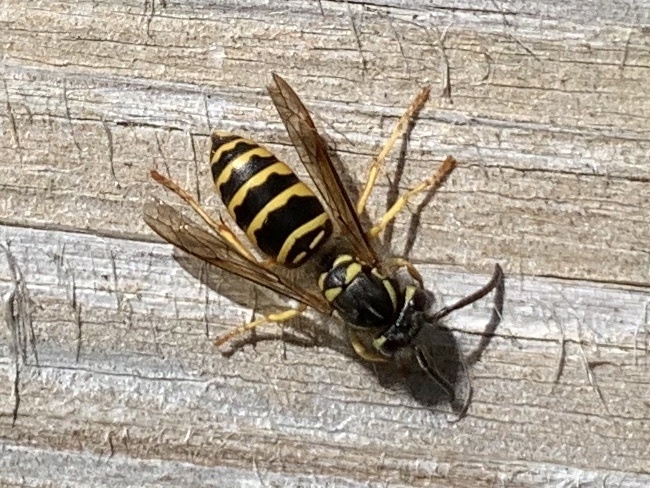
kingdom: Animalia
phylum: Arthropoda
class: Insecta
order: Hymenoptera
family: Vespidae
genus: Vespula
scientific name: Vespula maculifrons
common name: Eastern yellowjacket
